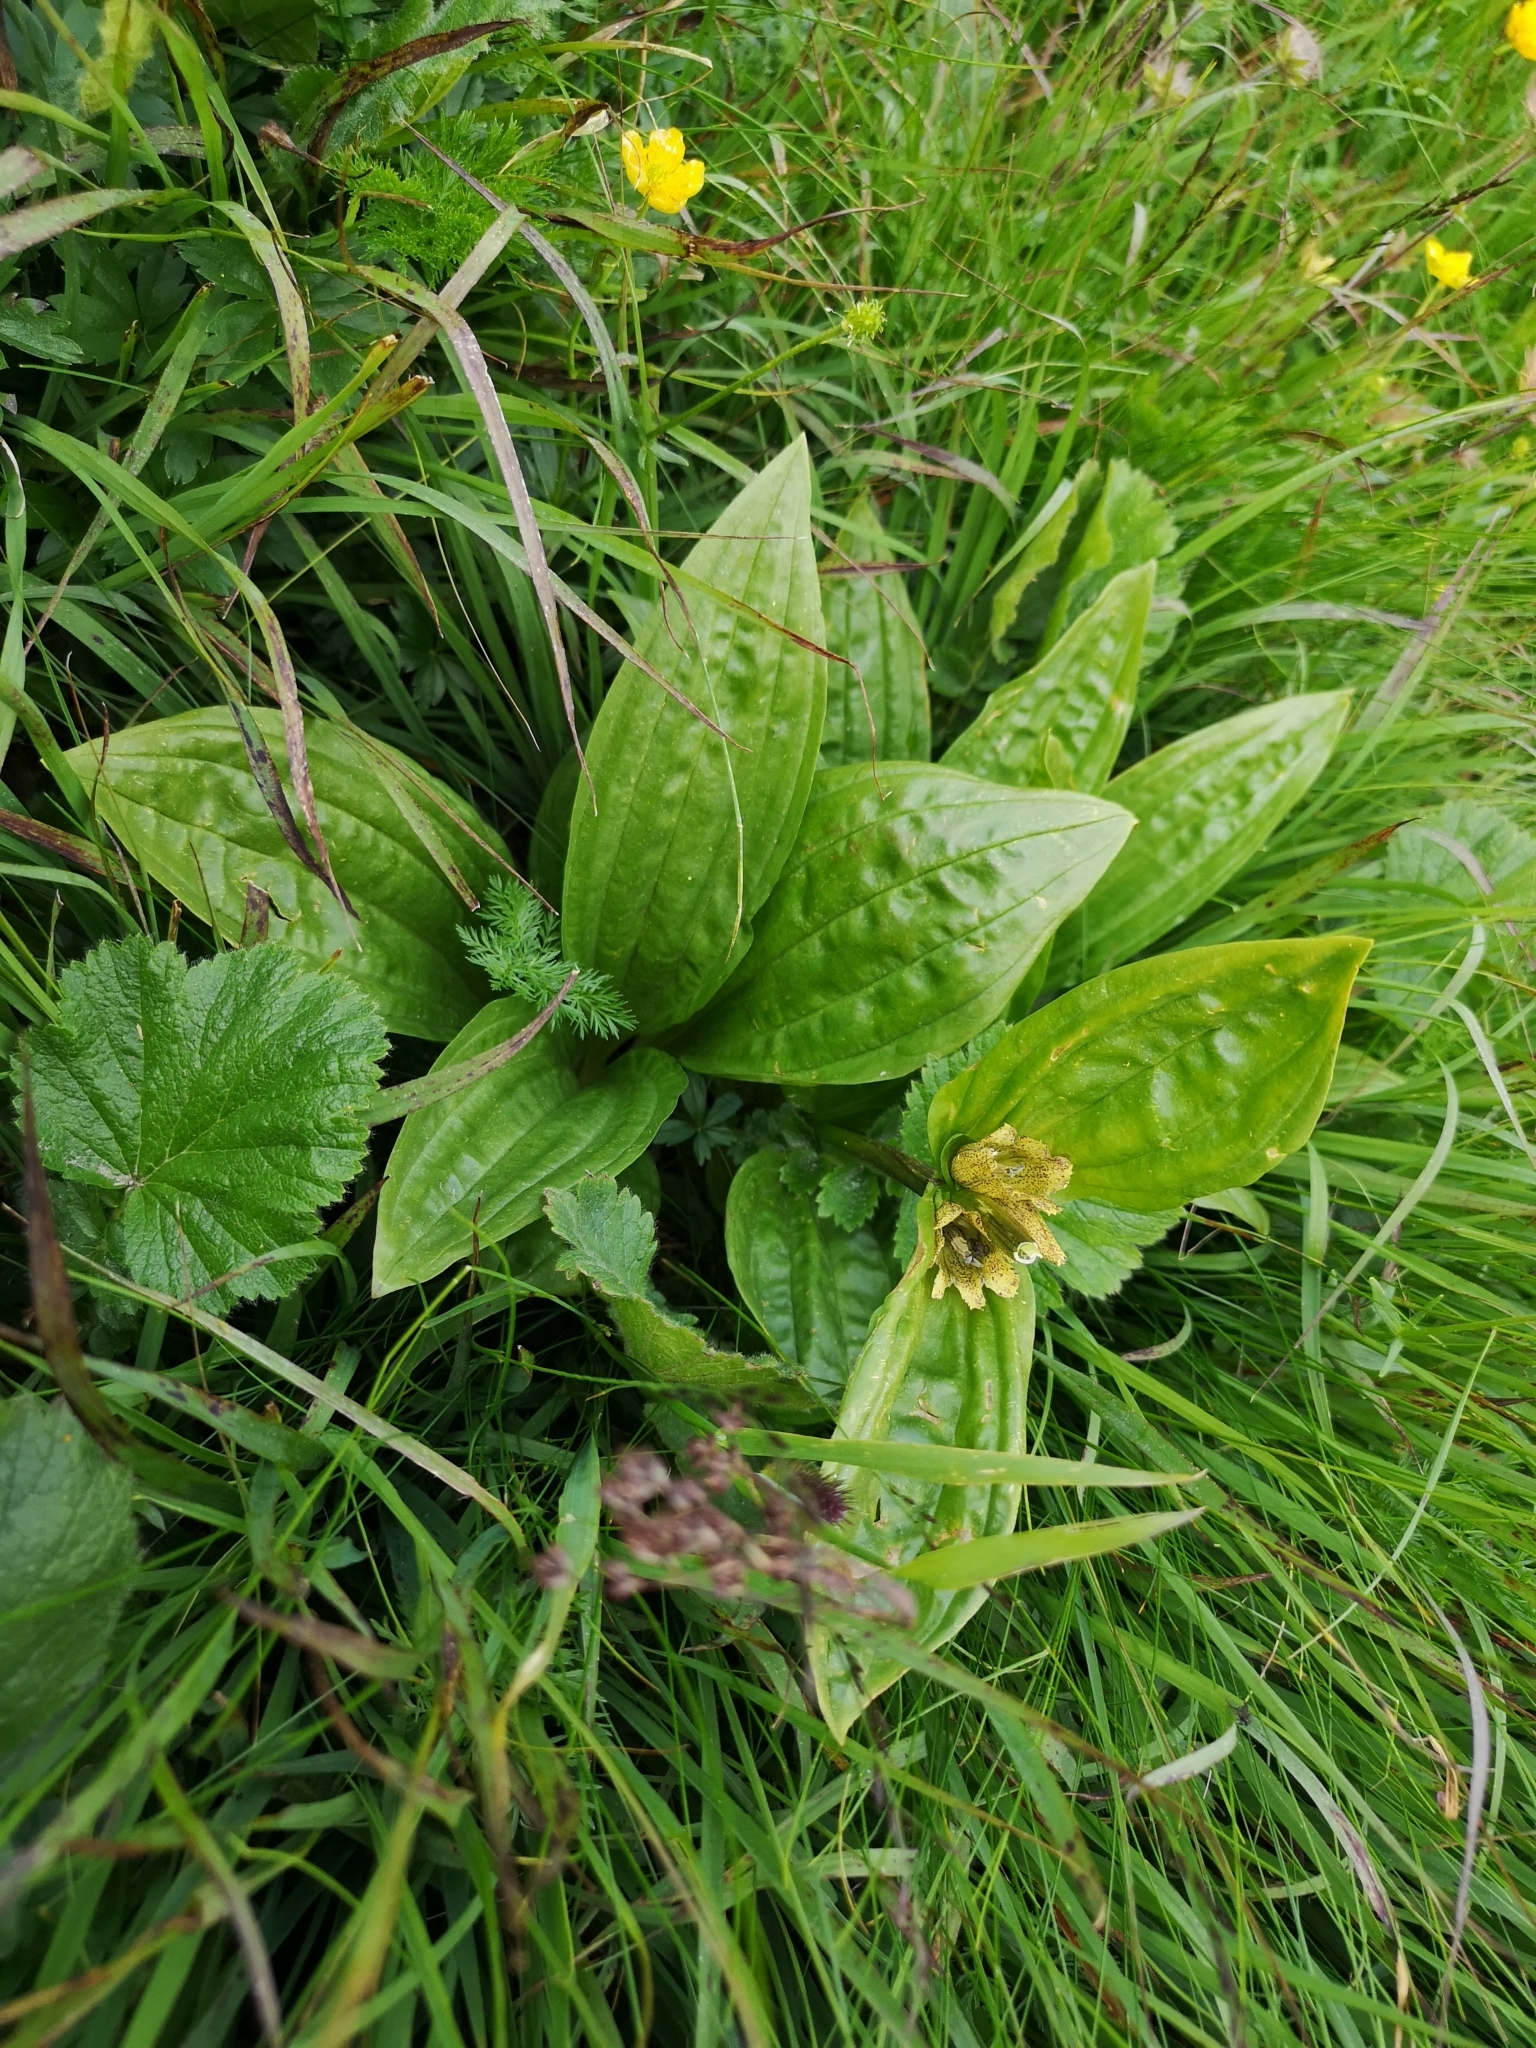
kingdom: Plantae
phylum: Tracheophyta
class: Magnoliopsida
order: Gentianales
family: Gentianaceae
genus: Gentiana
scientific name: Gentiana punctata
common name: Spotted gentian
